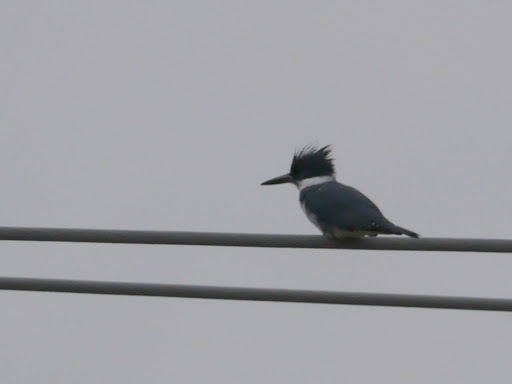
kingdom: Animalia
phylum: Chordata
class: Aves
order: Coraciiformes
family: Alcedinidae
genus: Megaceryle
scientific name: Megaceryle alcyon
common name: Belted kingfisher
